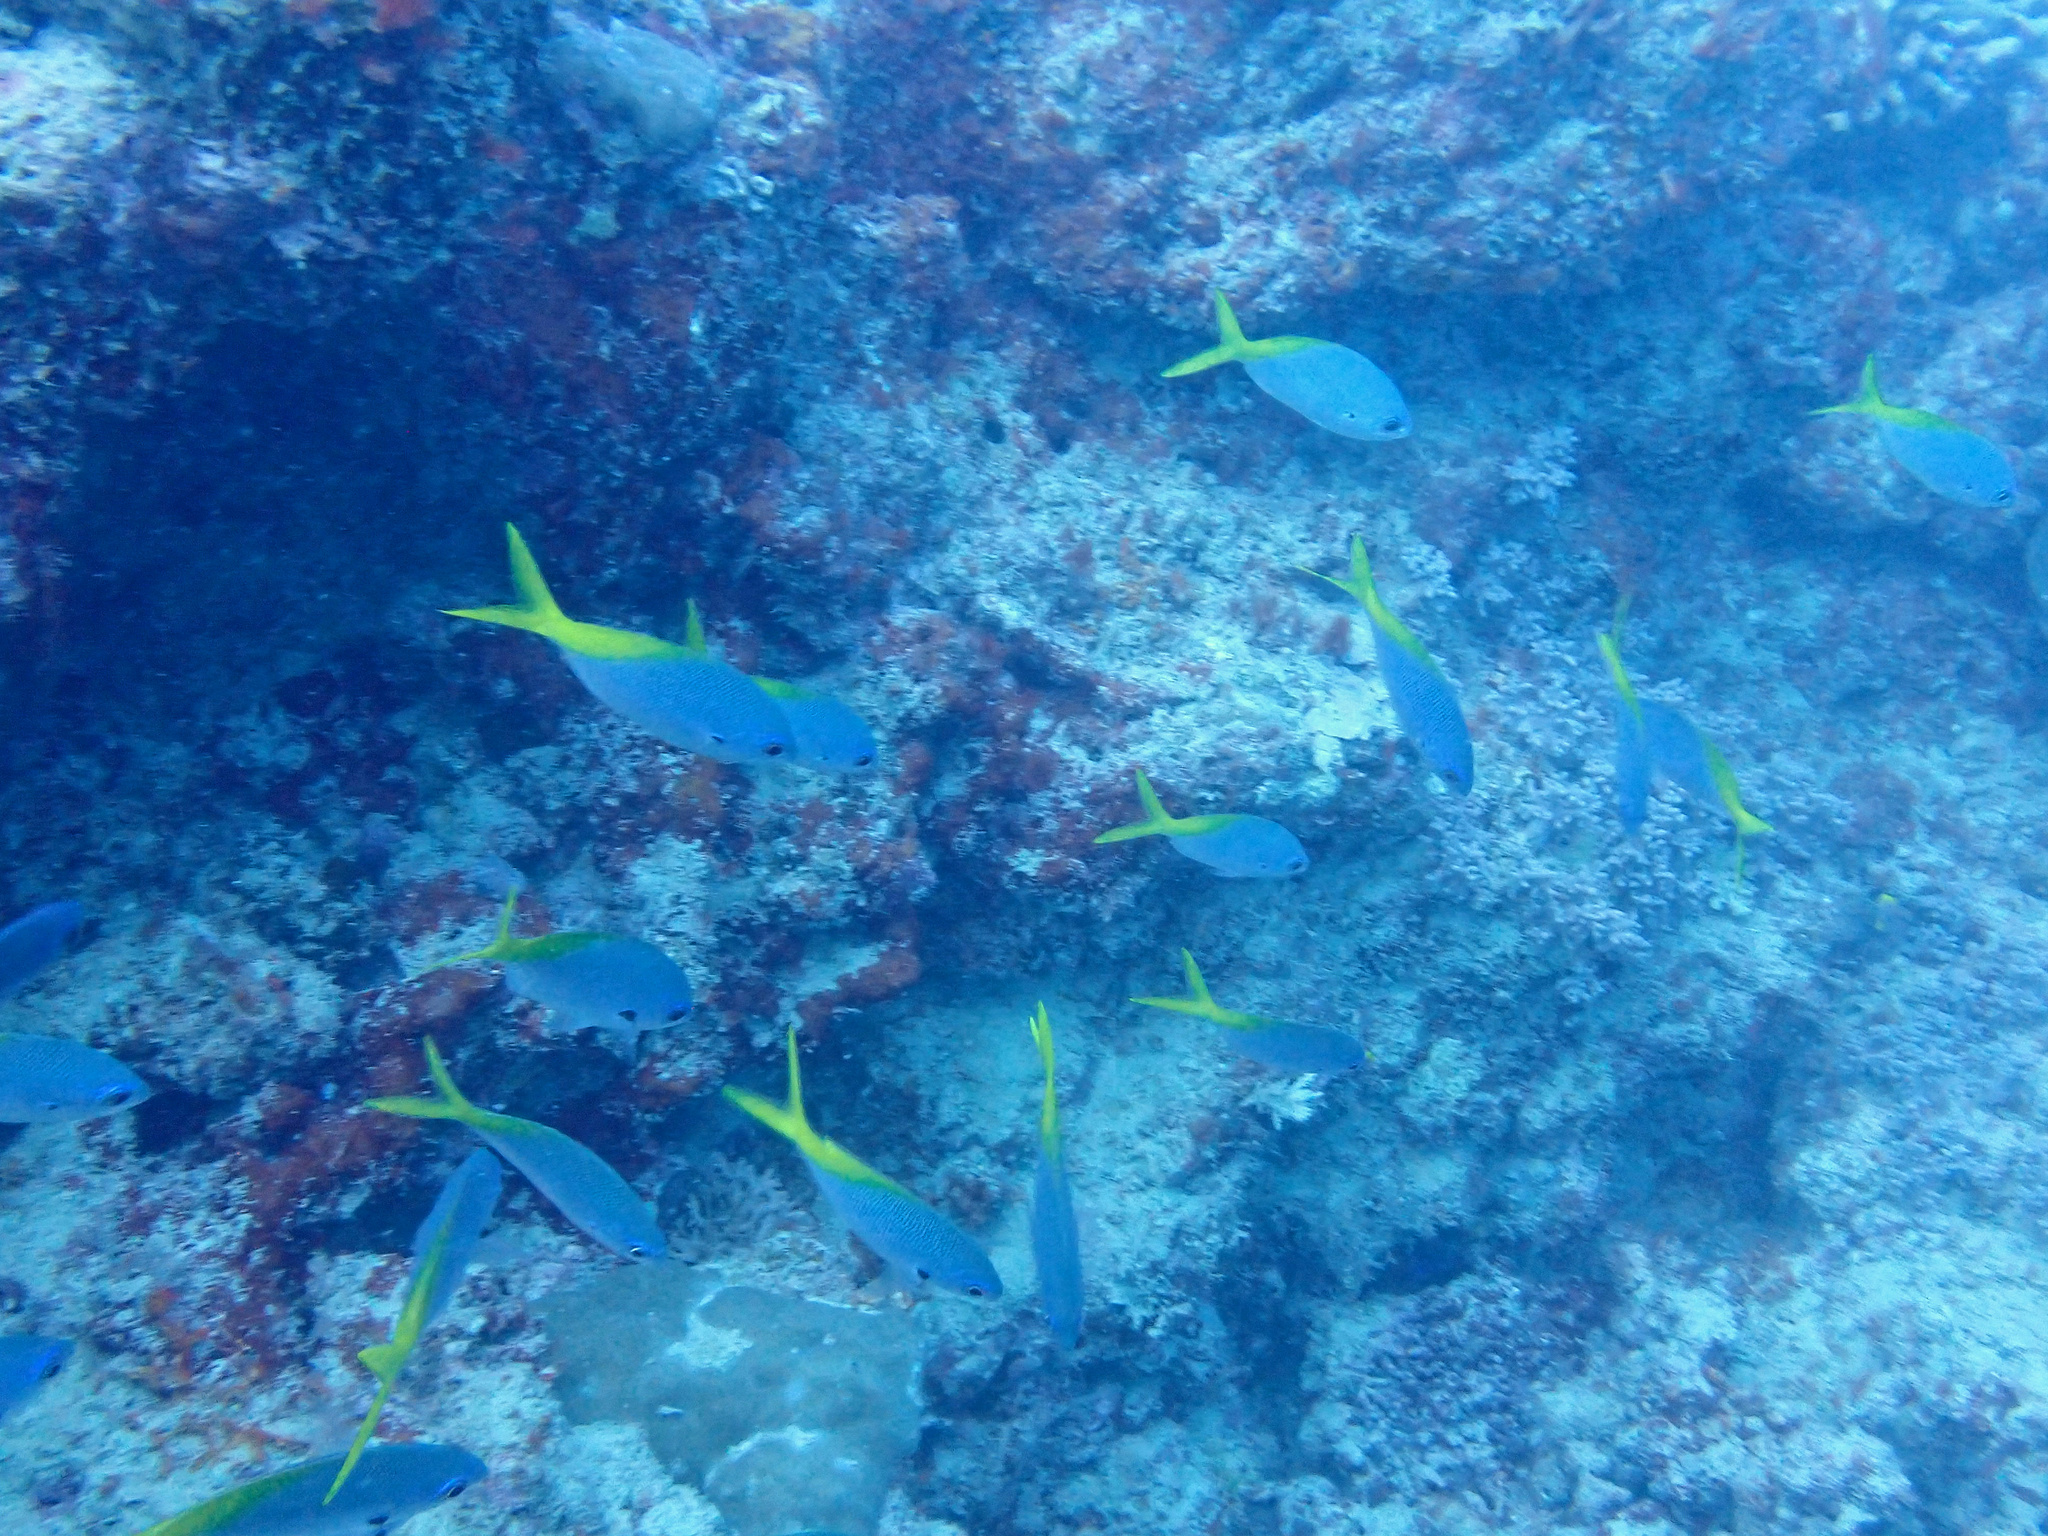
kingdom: Animalia
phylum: Chordata
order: Perciformes
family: Caesionidae
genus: Caesio
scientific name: Caesio cuning
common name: Red-bellied fusilier
